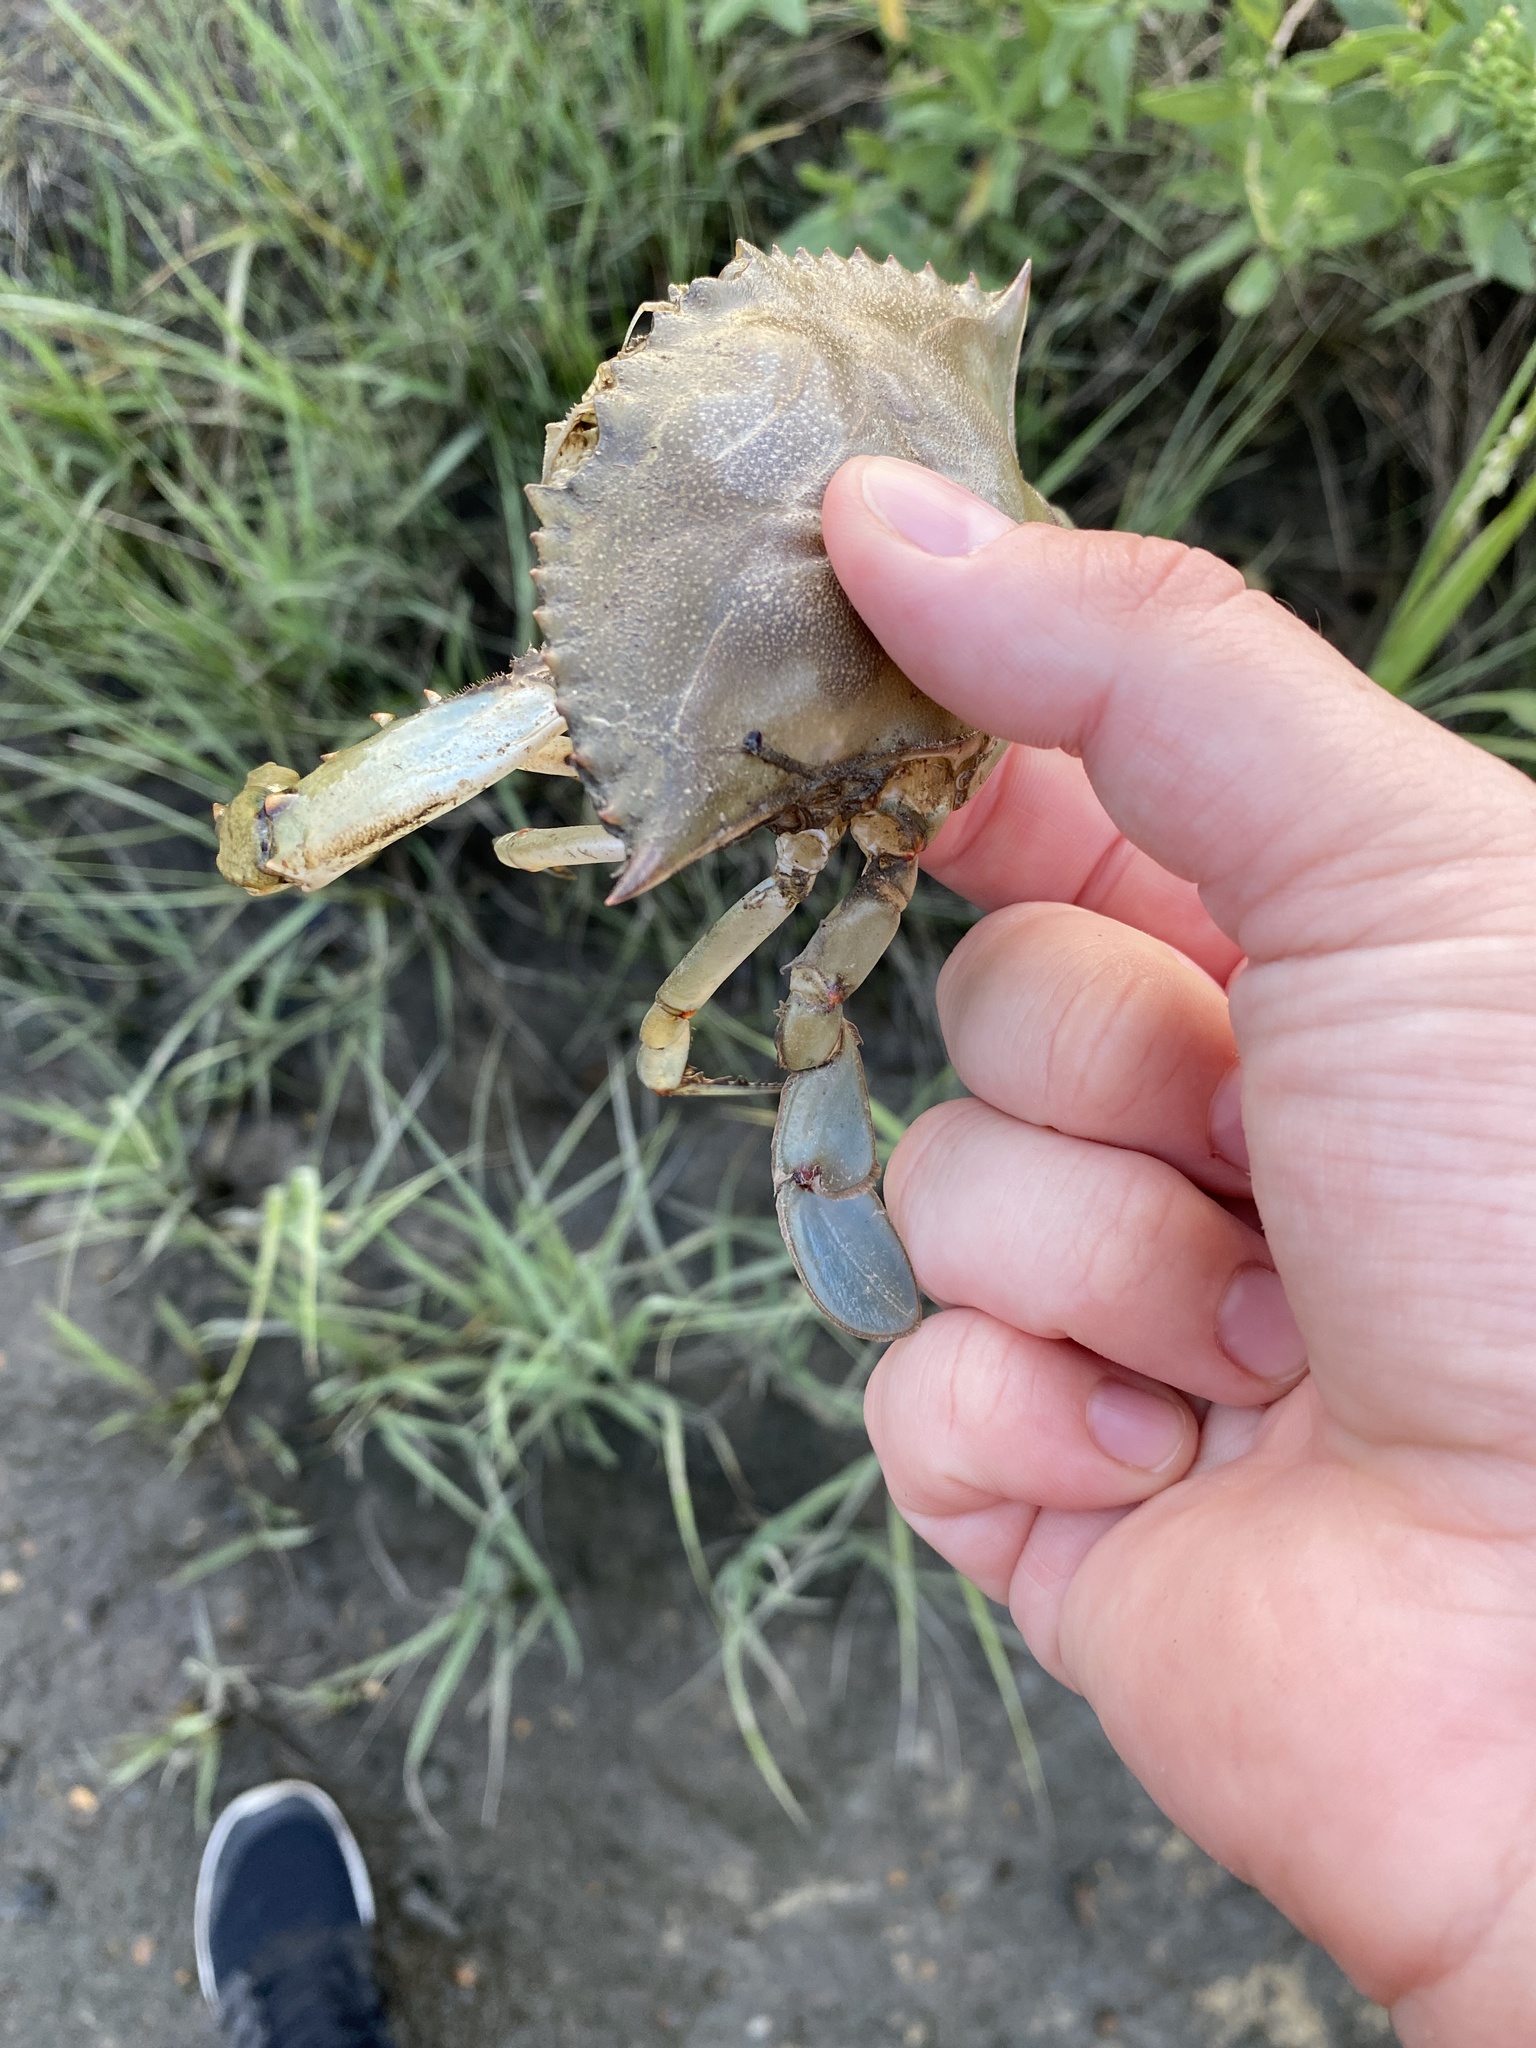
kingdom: Animalia
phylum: Arthropoda
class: Malacostraca
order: Decapoda
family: Portunidae
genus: Callinectes
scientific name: Callinectes sapidus
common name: Blue crab
